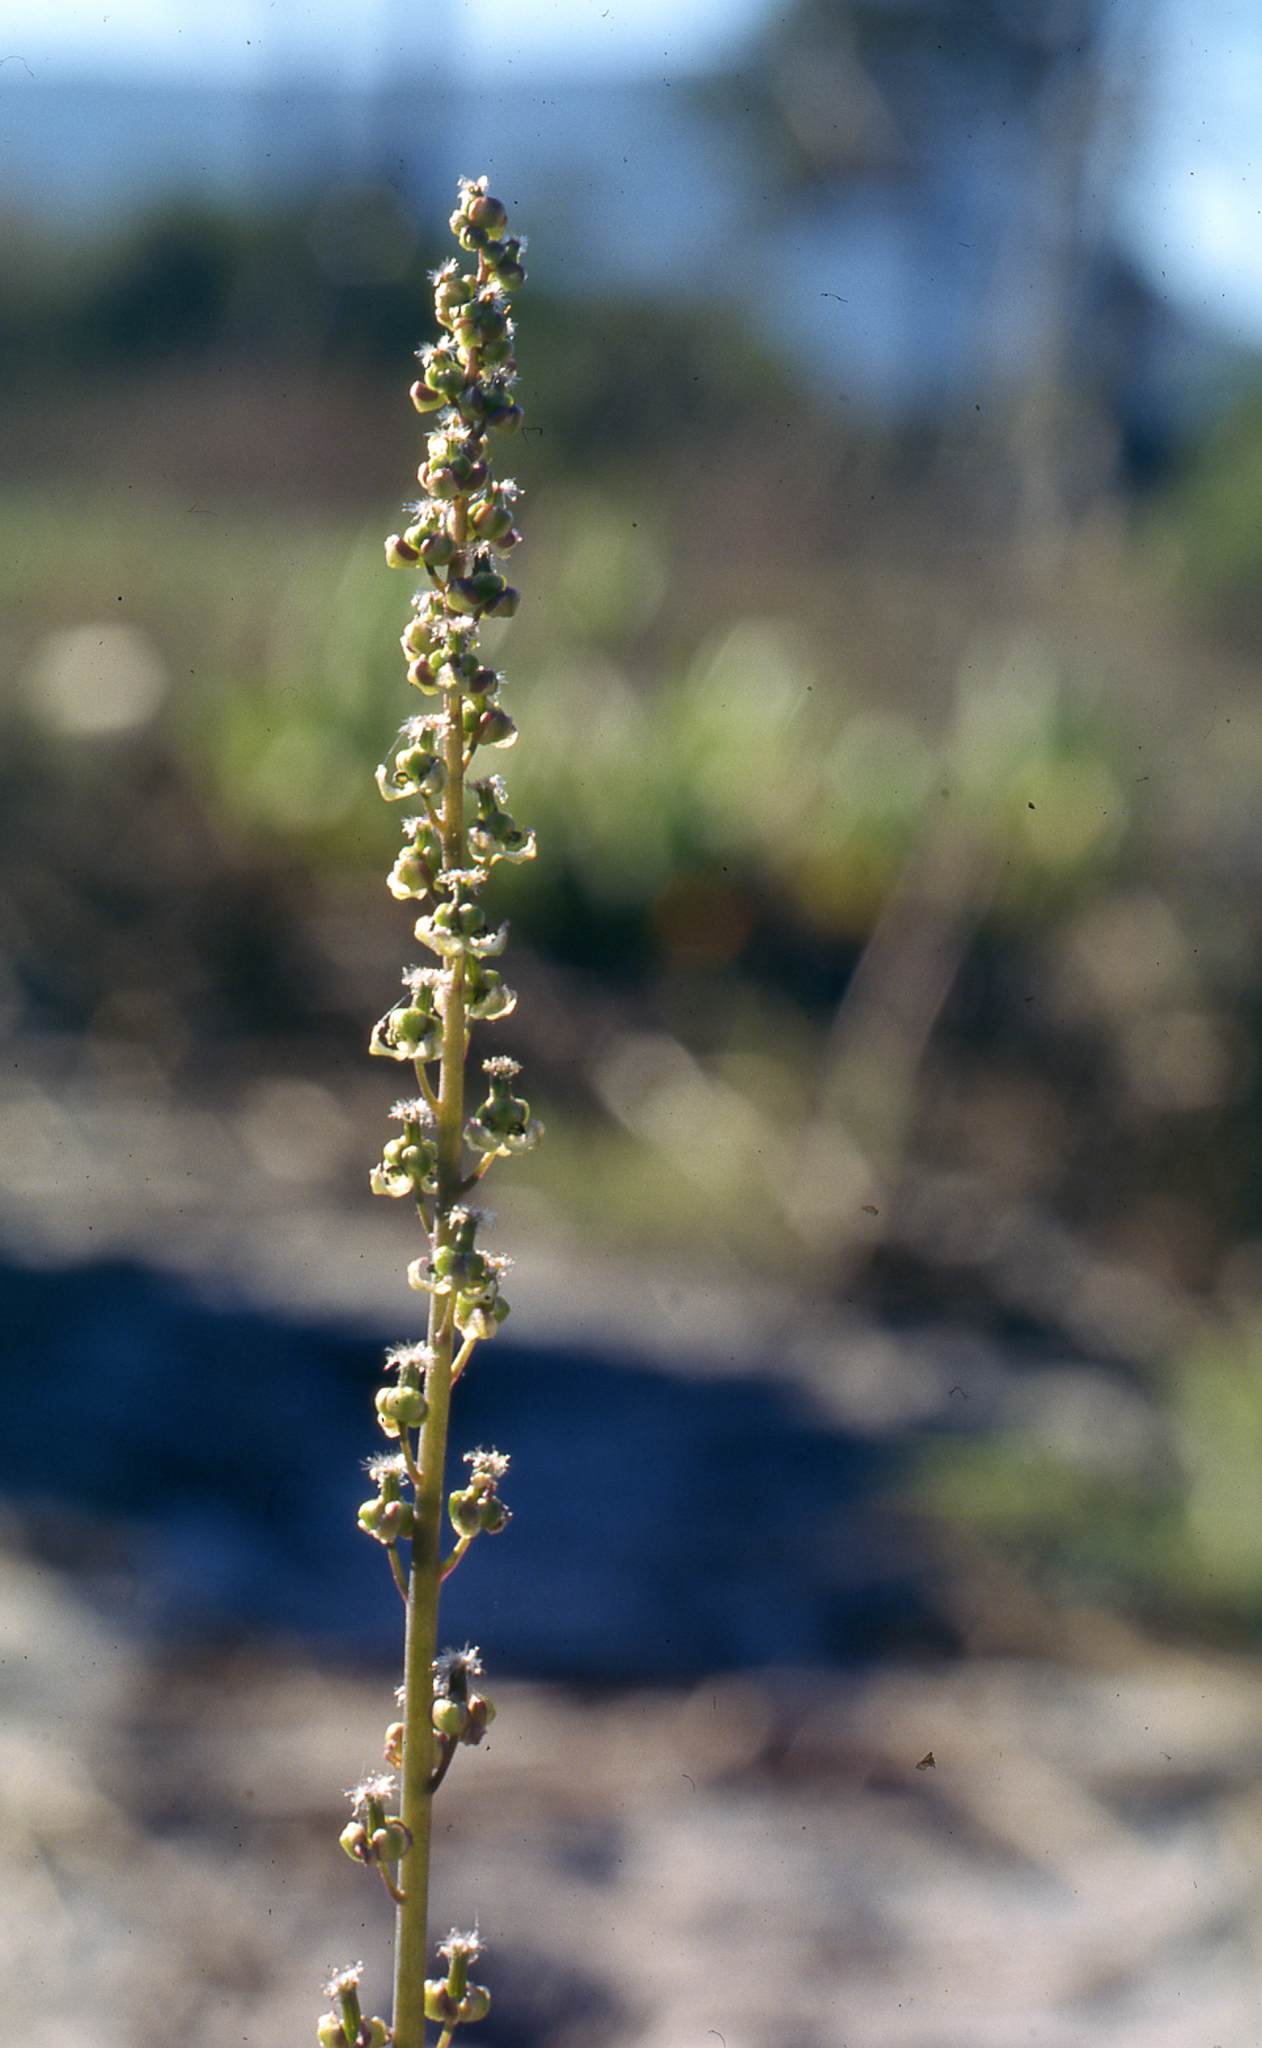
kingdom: Plantae
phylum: Tracheophyta
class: Liliopsida
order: Alismatales
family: Juncaginaceae
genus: Triglochin
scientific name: Triglochin bulbosa
